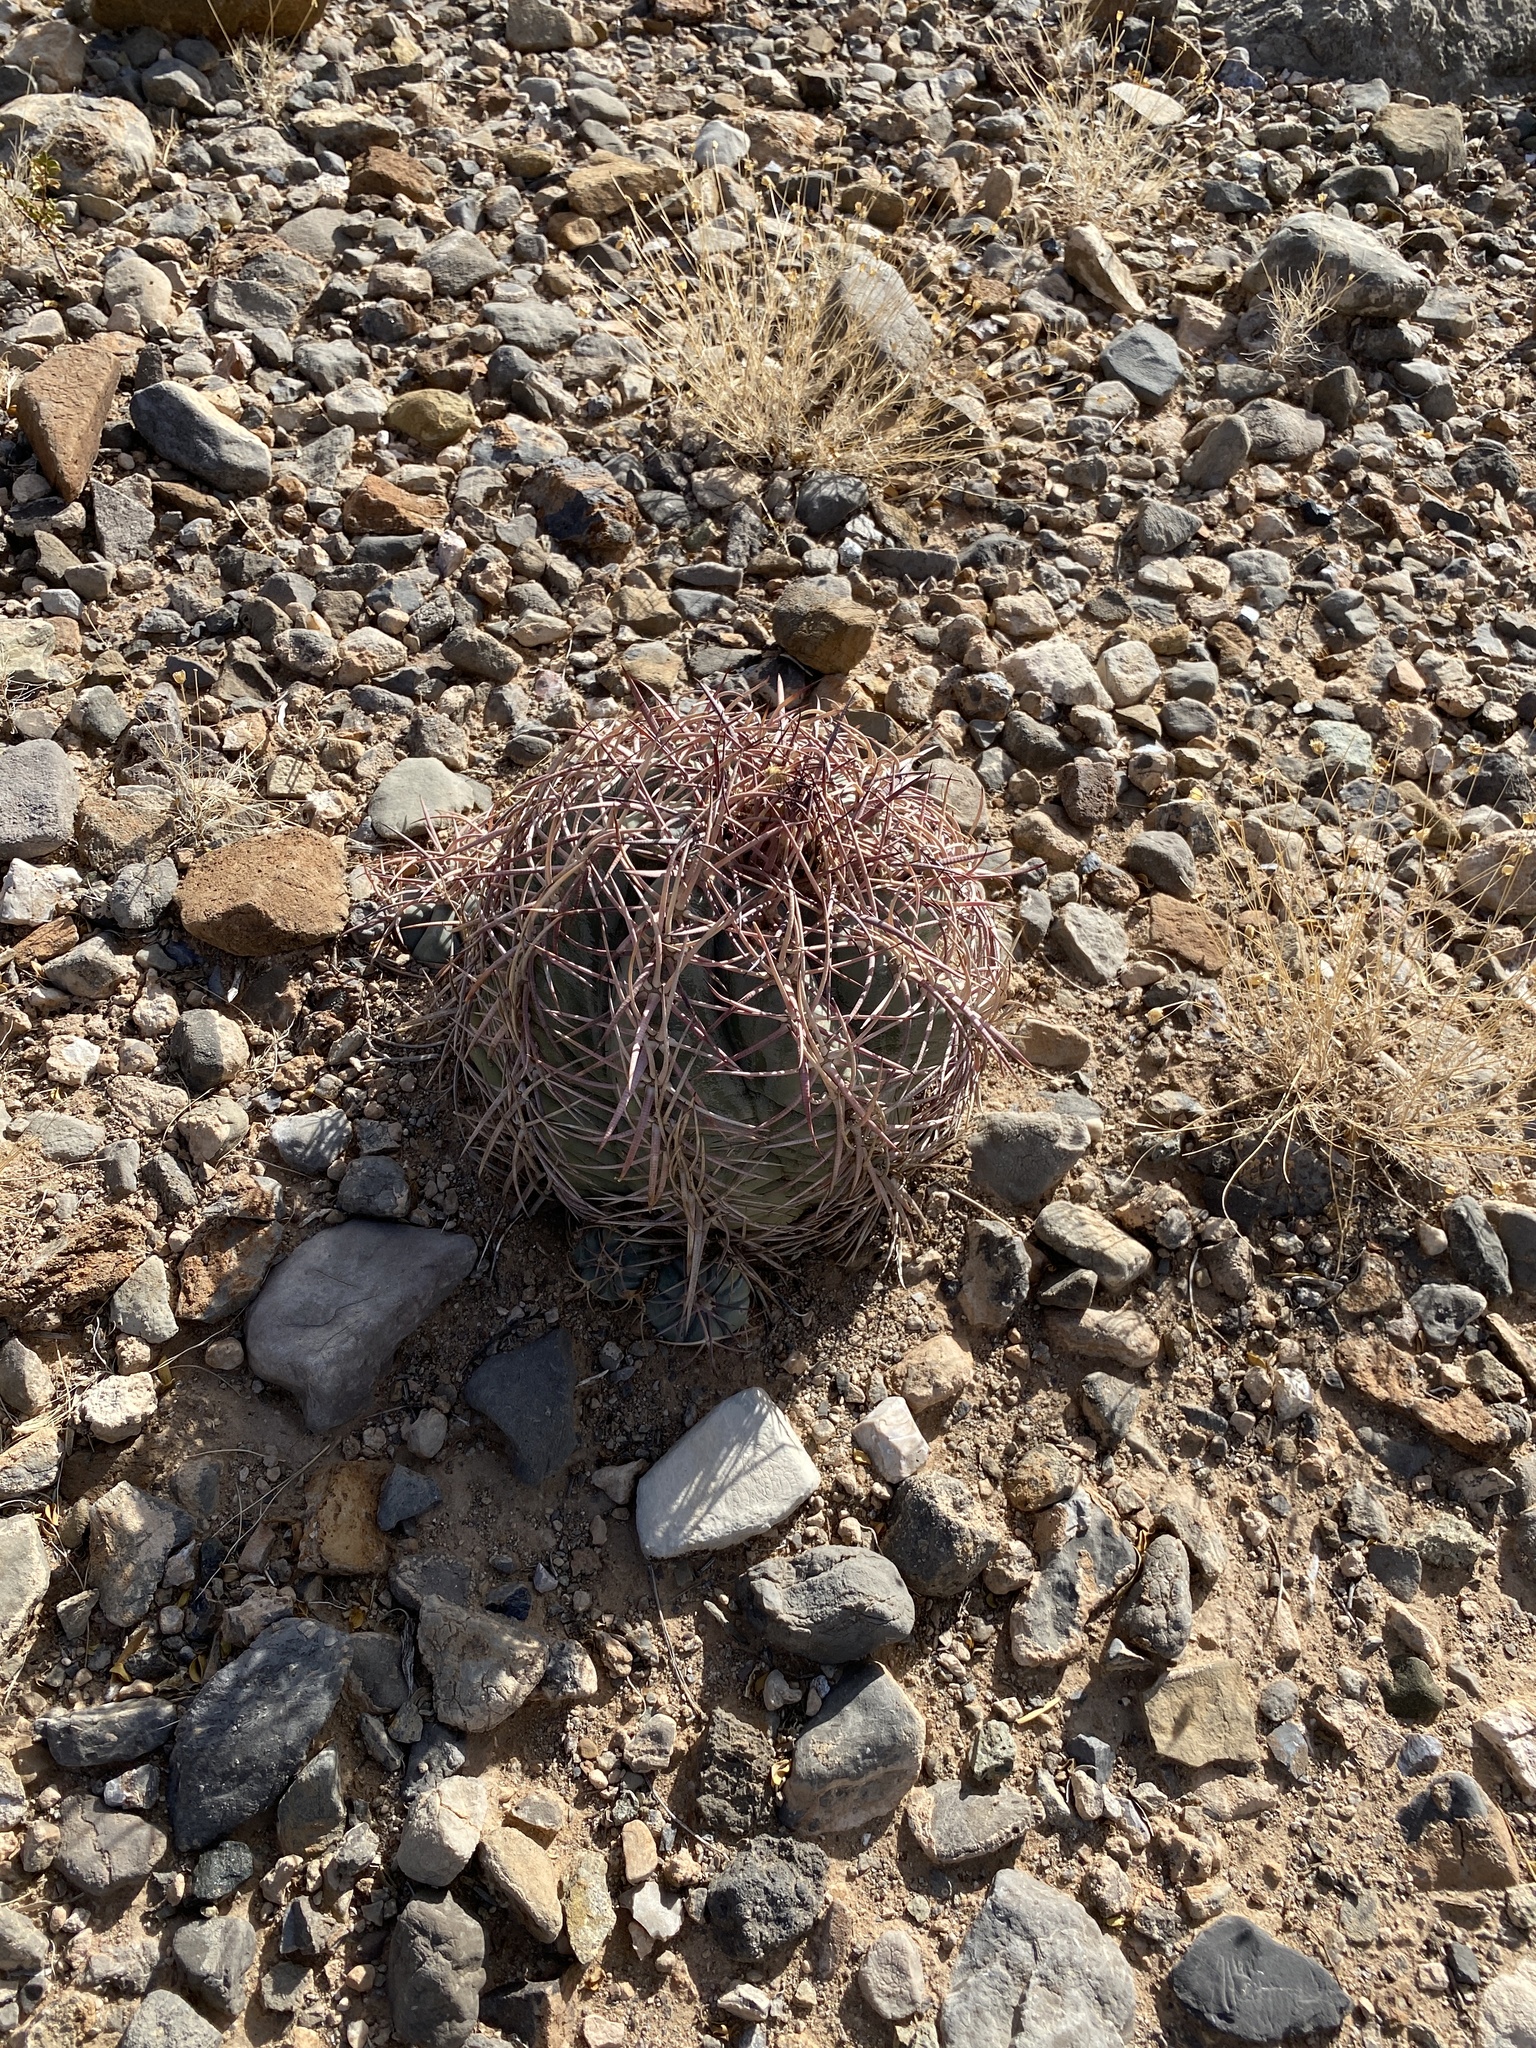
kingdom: Plantae
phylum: Tracheophyta
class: Magnoliopsida
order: Caryophyllales
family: Cactaceae
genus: Echinocactus
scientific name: Echinocactus horizonthalonius
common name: Devilshead
